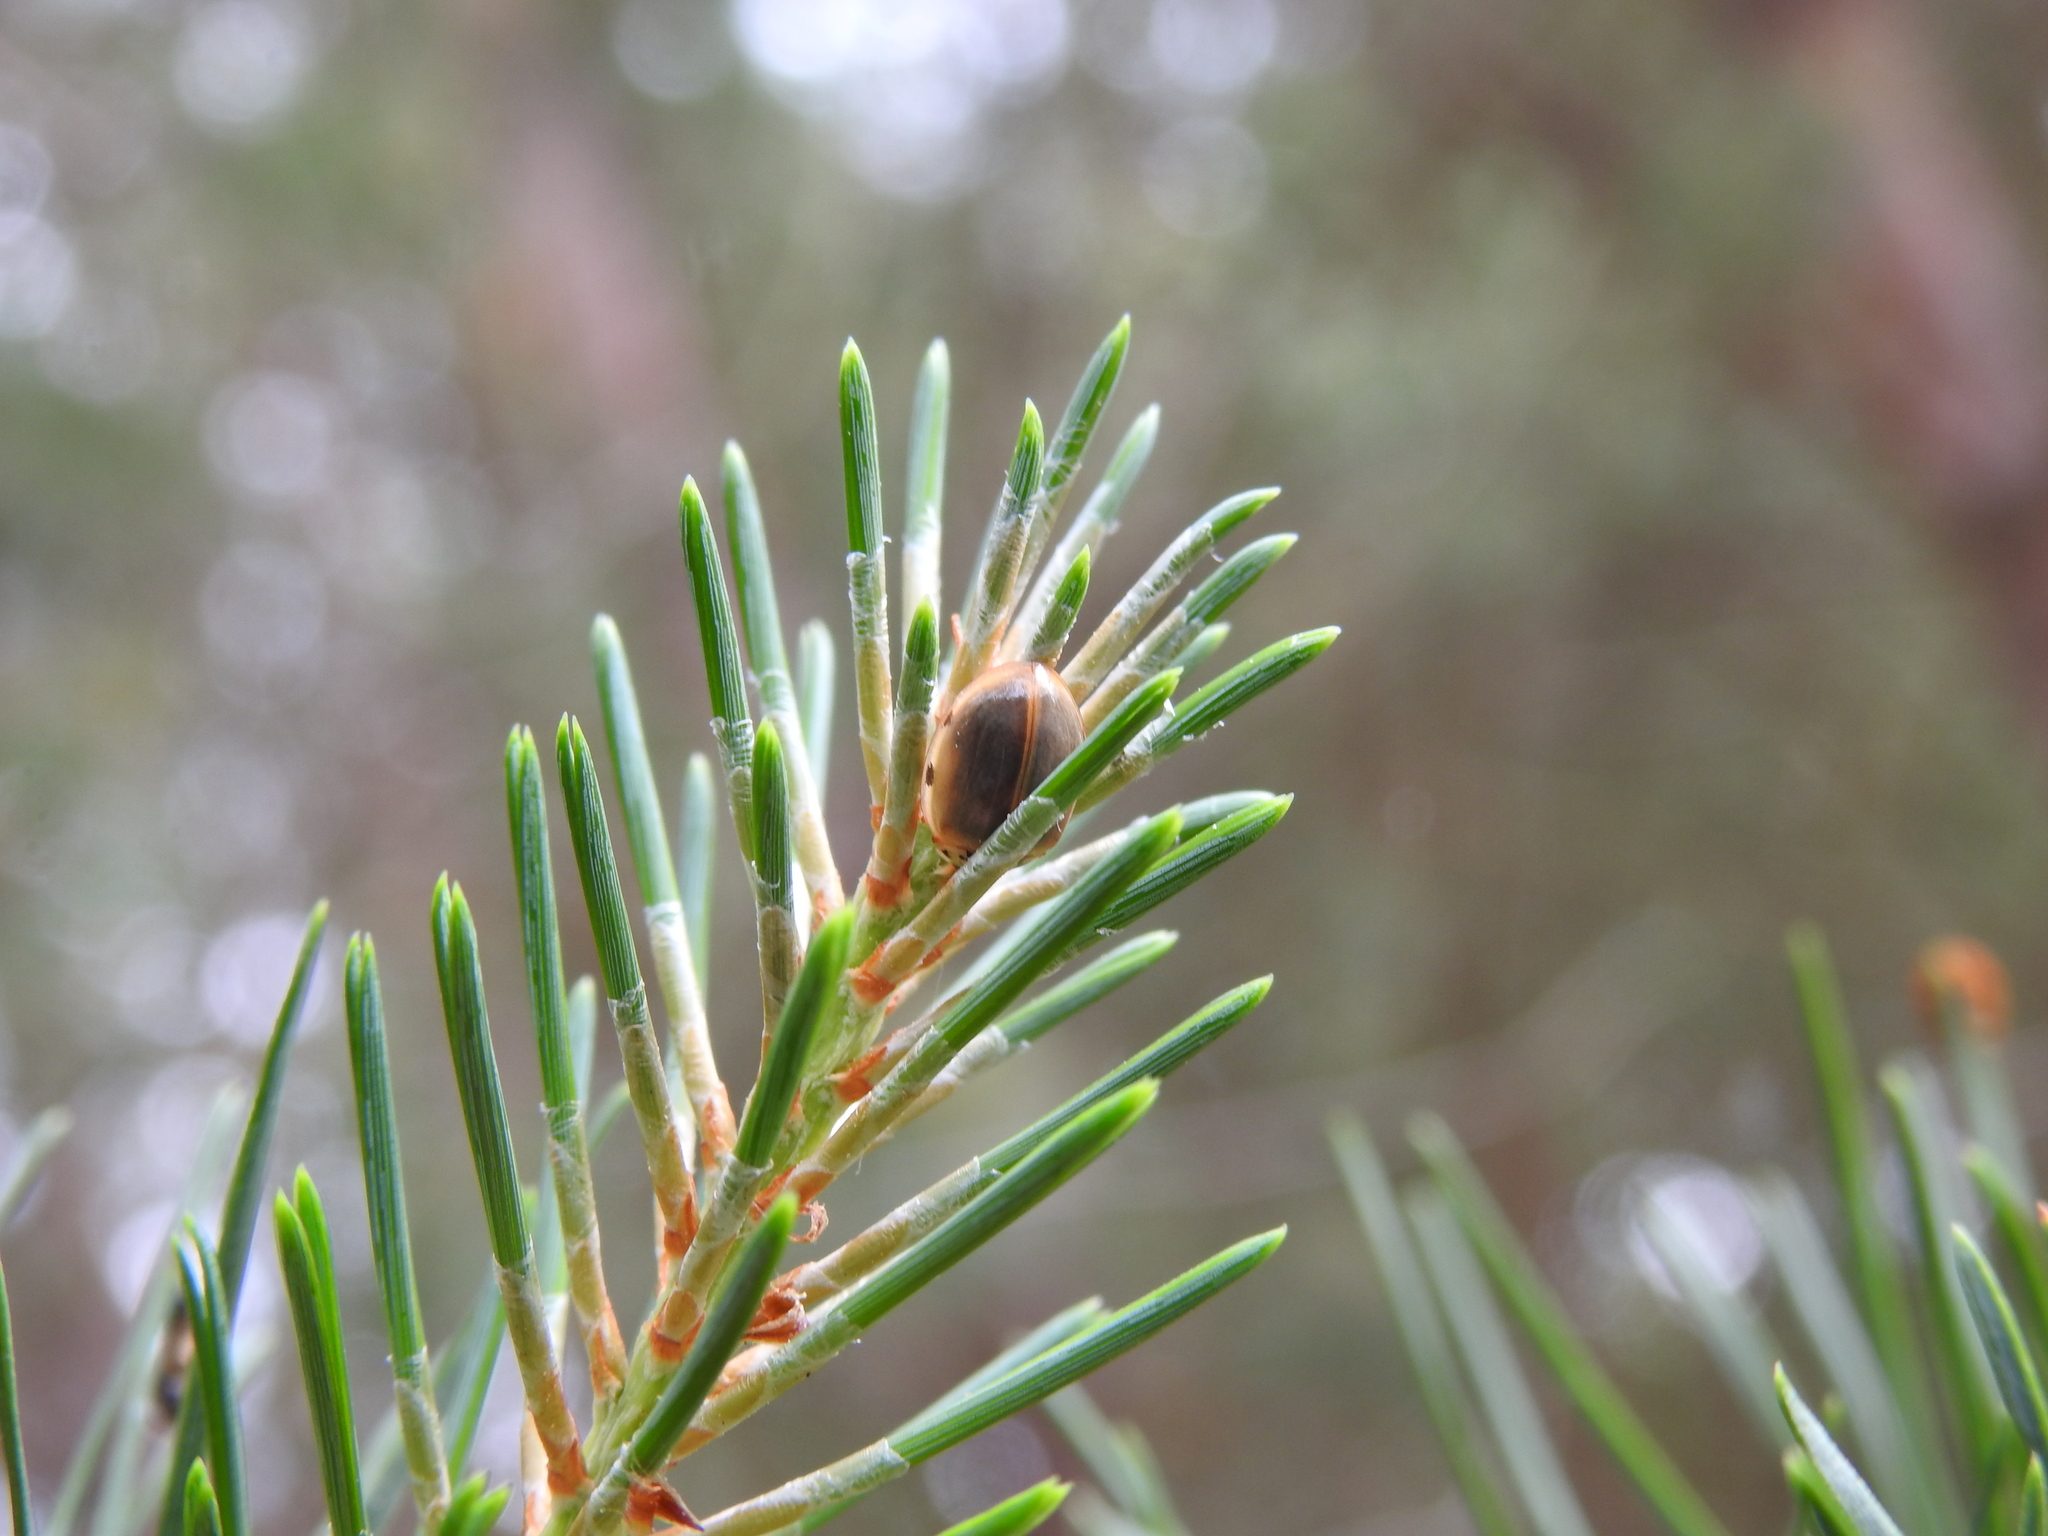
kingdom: Animalia
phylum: Arthropoda
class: Insecta
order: Coleoptera
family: Coccinellidae
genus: Harmonia
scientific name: Harmonia quadripunctata
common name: Cream-streaked ladybird
